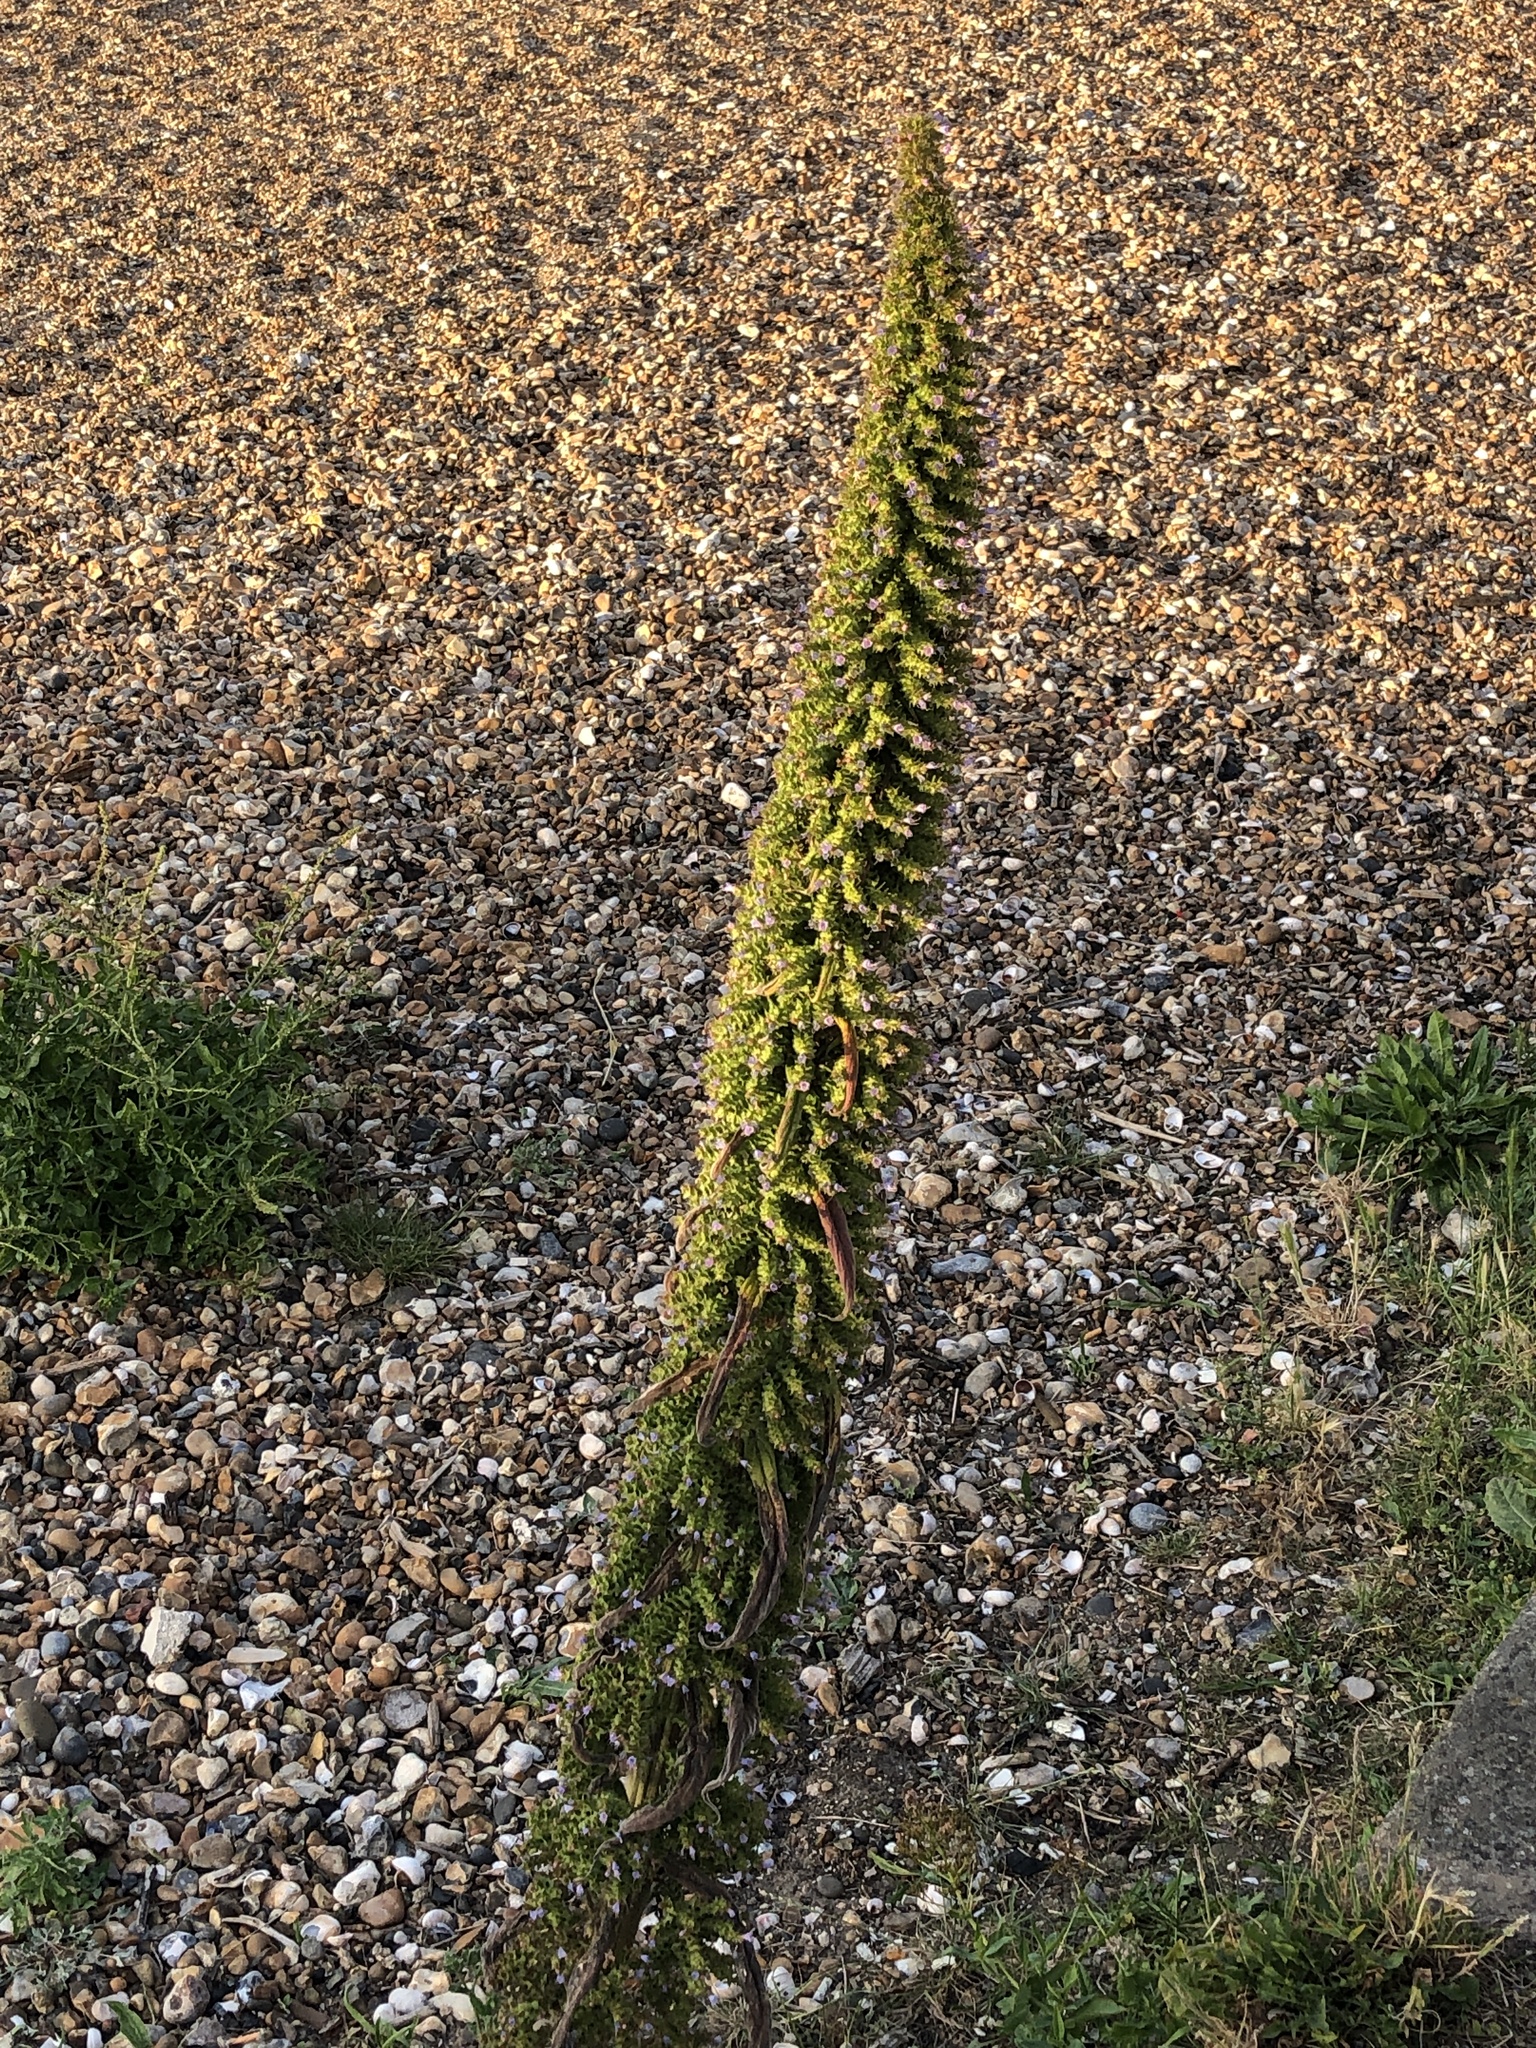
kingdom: Plantae
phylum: Tracheophyta
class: Magnoliopsida
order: Boraginales
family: Boraginaceae
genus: Echium
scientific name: Echium pininana
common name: Giant viper's-bugloss
